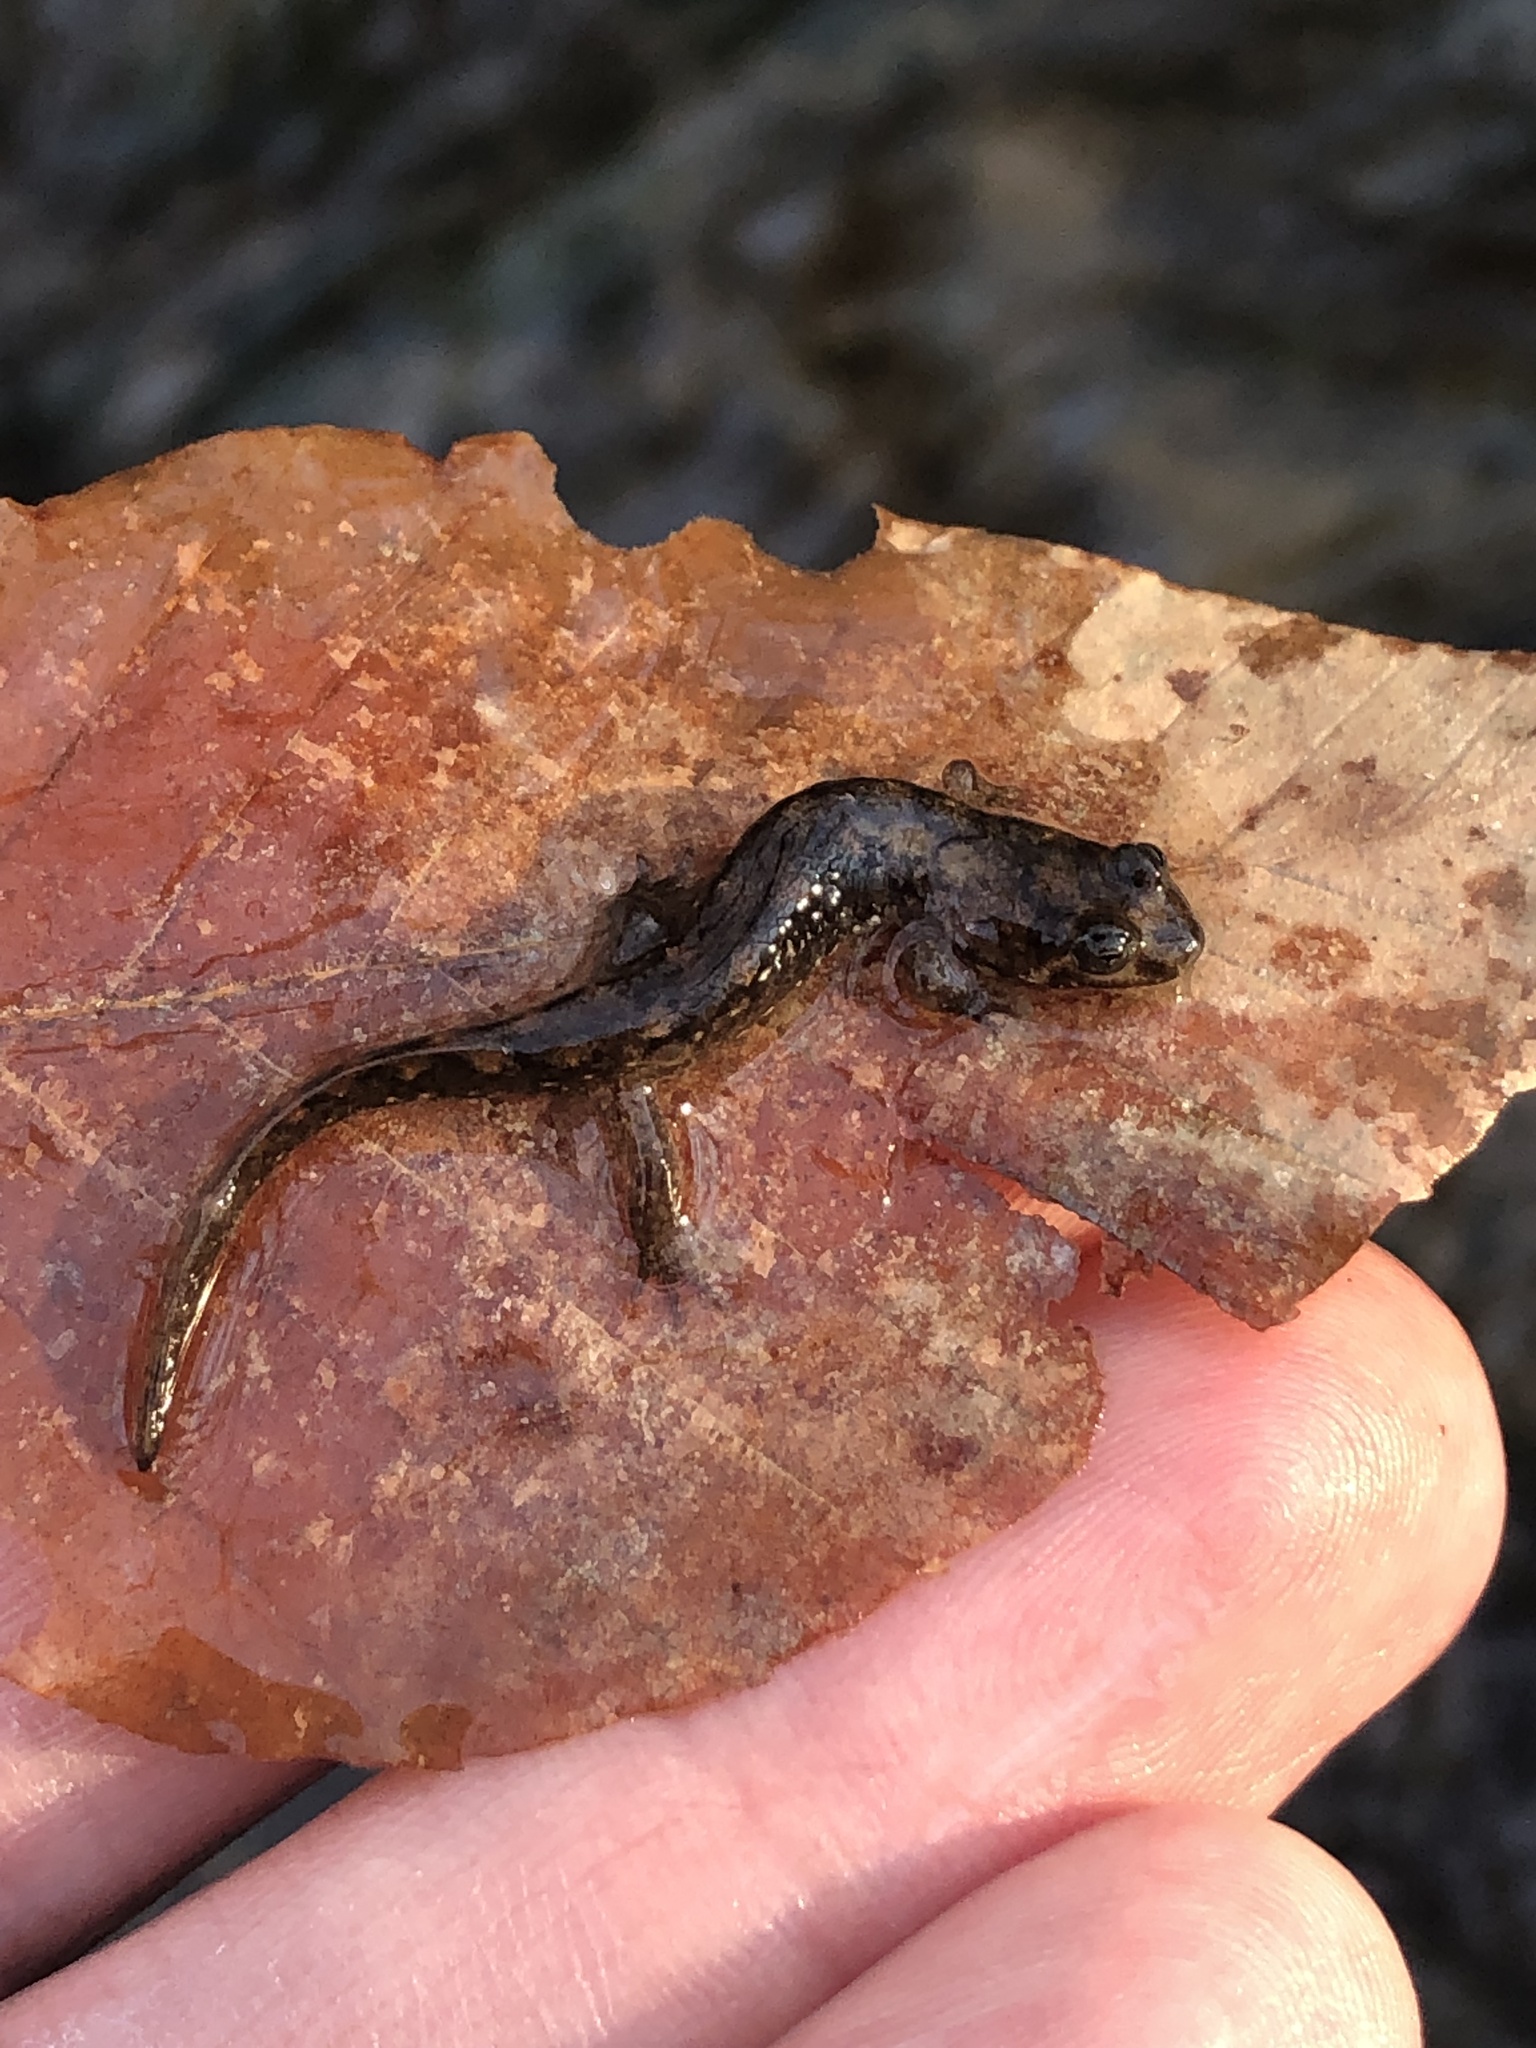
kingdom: Animalia
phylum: Chordata
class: Amphibia
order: Caudata
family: Plethodontidae
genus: Desmognathus
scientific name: Desmognathus conanti
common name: Spotted dusky salamander
